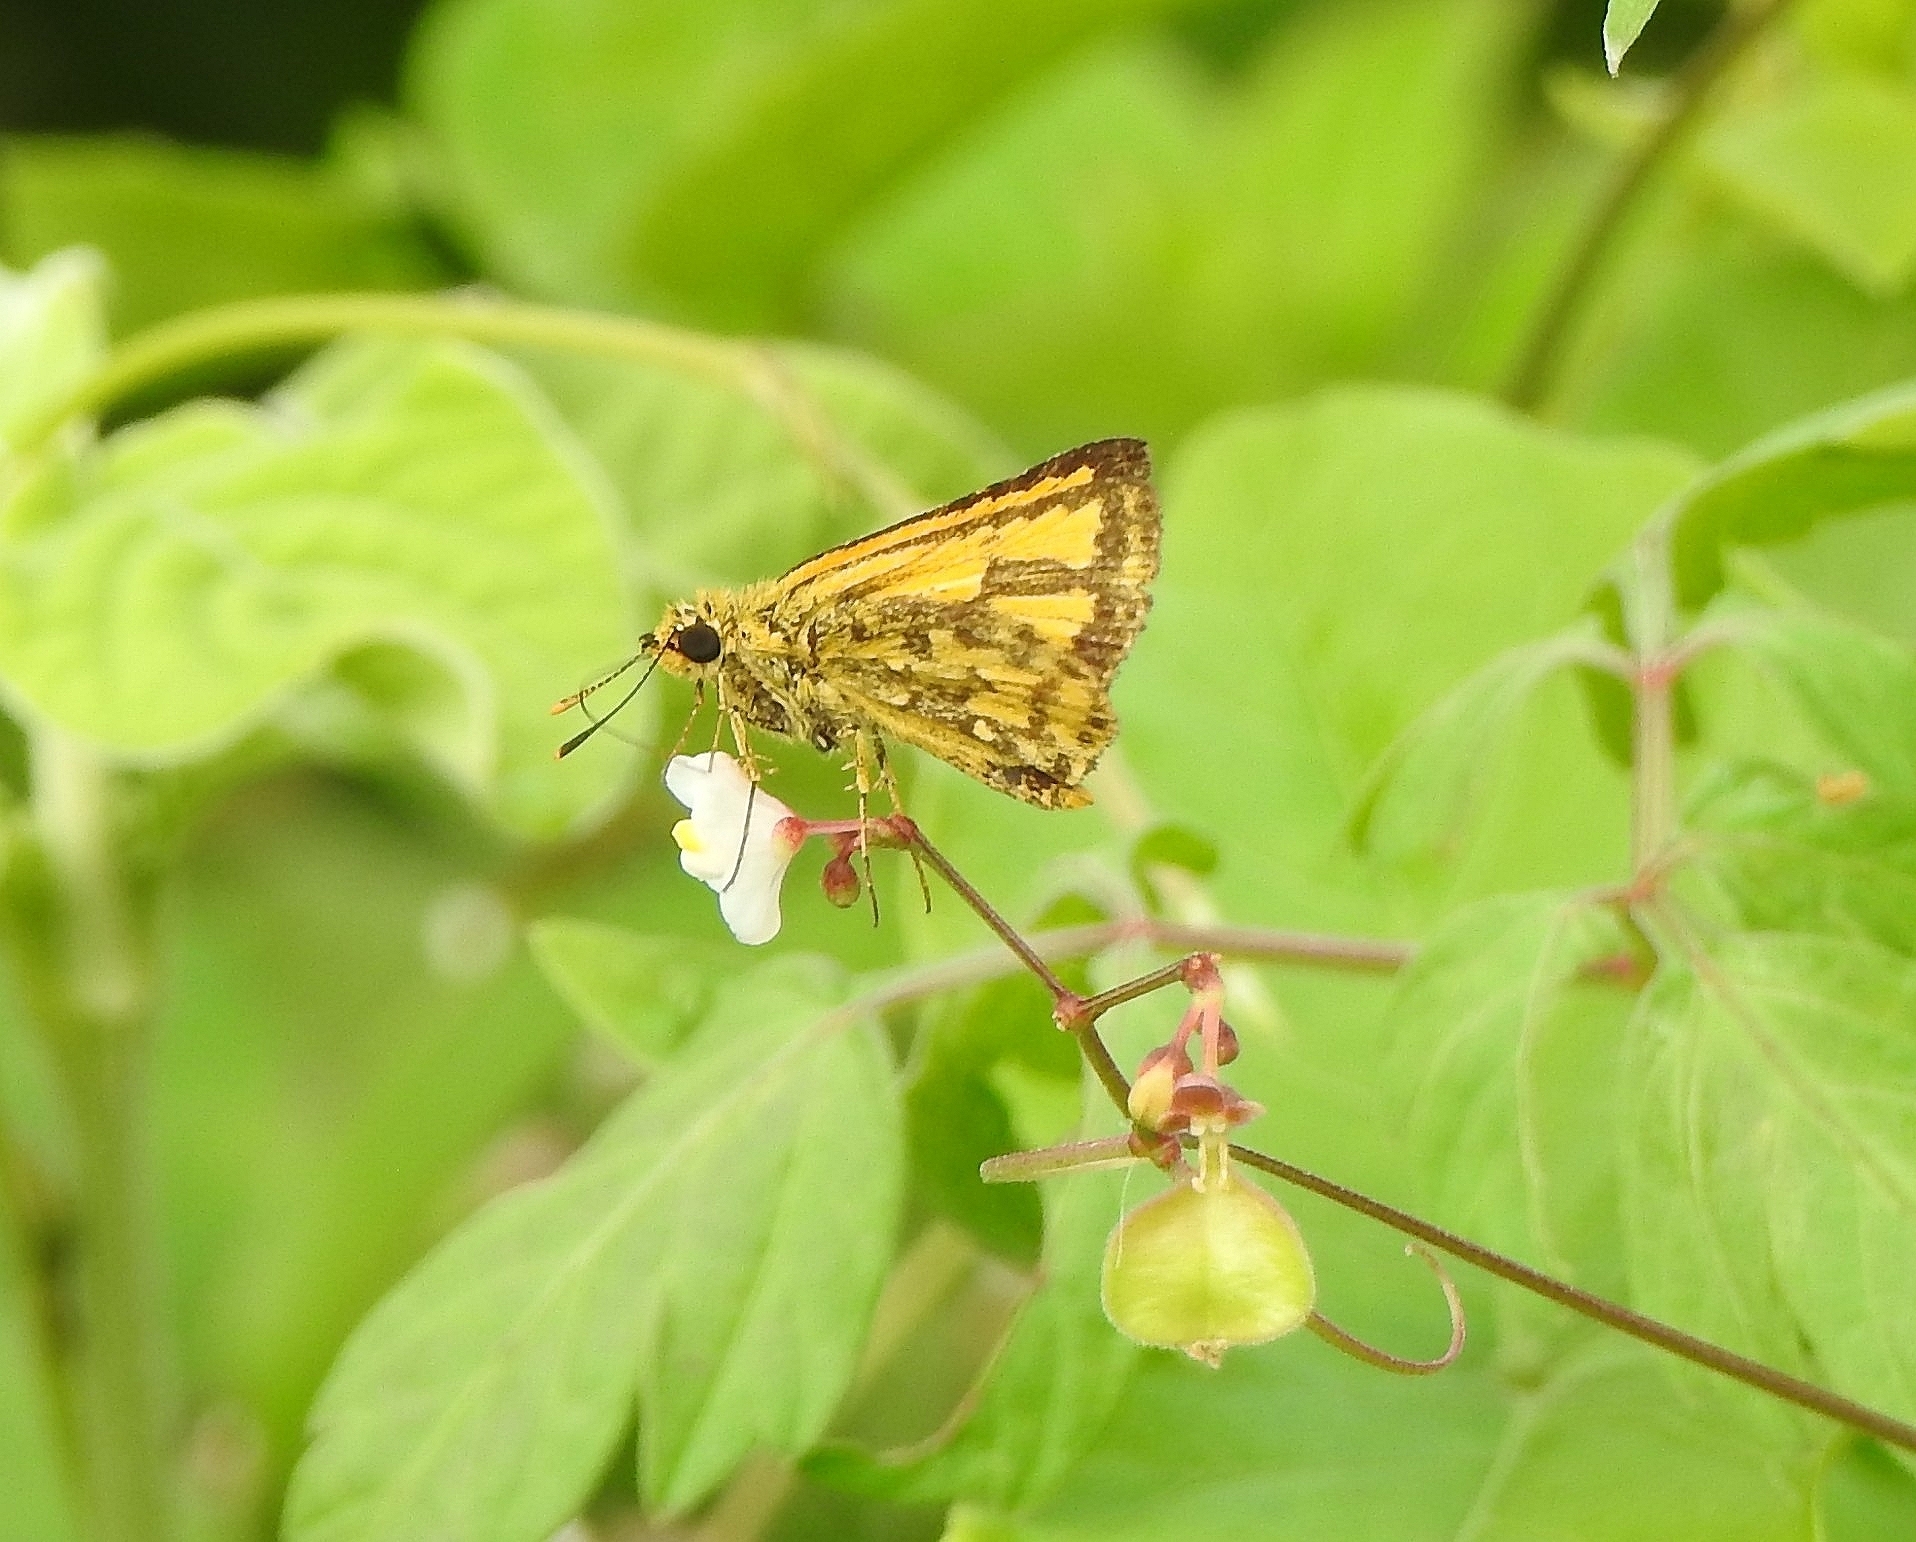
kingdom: Animalia
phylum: Arthropoda
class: Insecta
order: Lepidoptera
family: Hesperiidae
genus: Ampittia
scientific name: Ampittia dioscorides
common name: Common bush hopper
